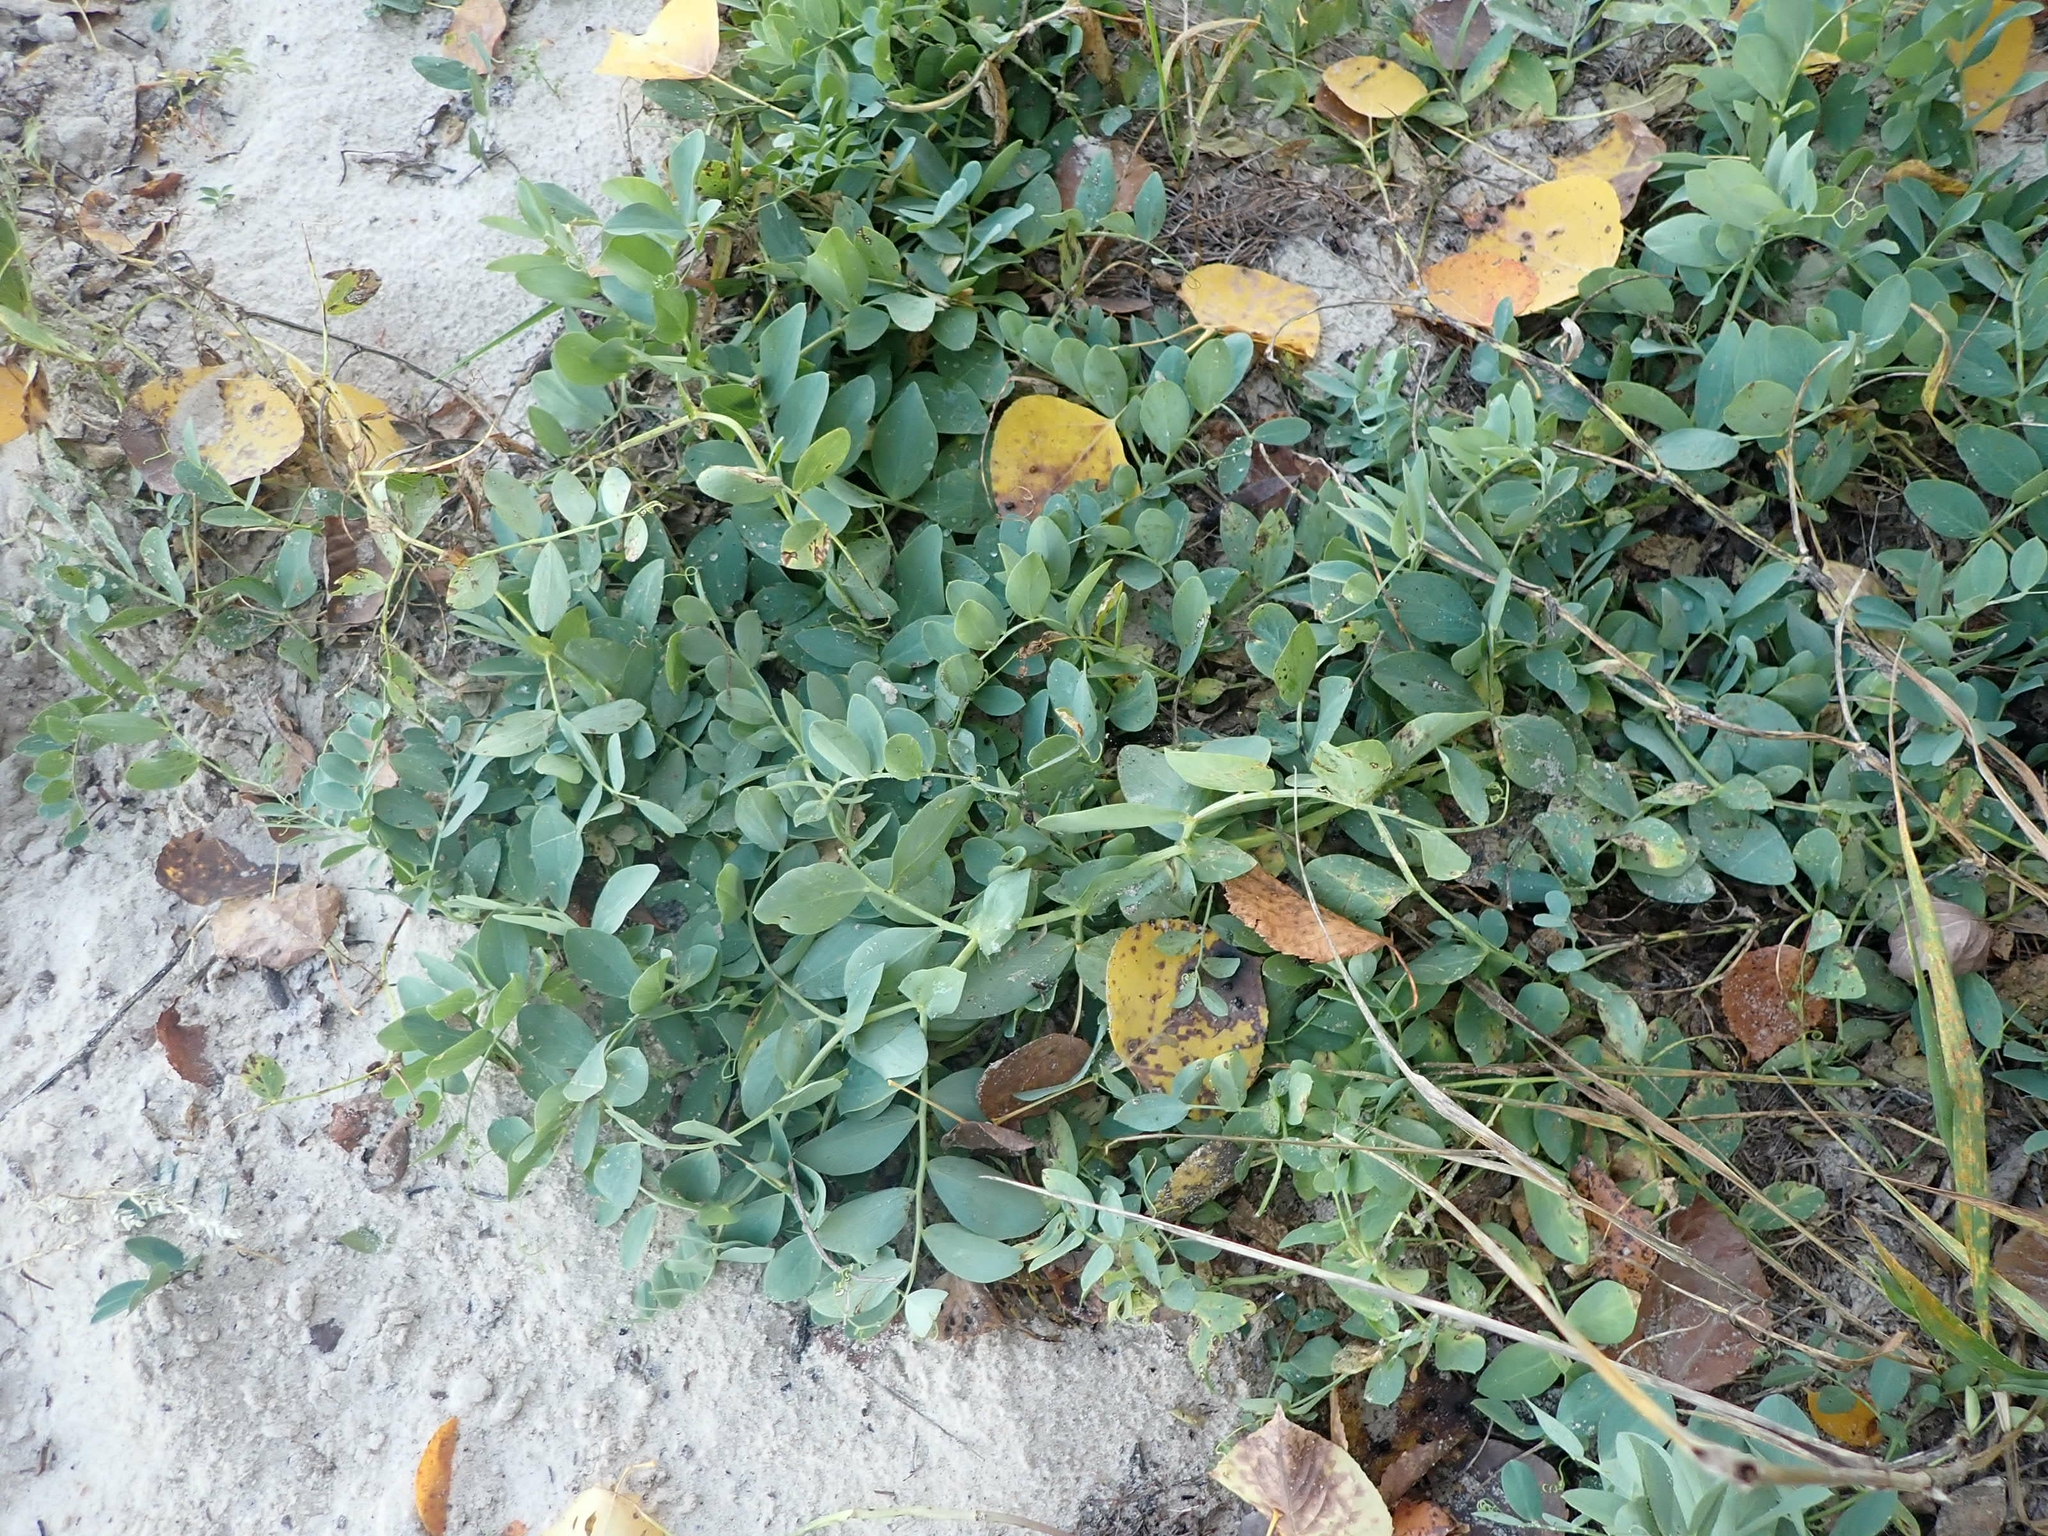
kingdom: Plantae
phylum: Tracheophyta
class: Magnoliopsida
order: Fabales
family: Fabaceae
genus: Lathyrus
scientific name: Lathyrus japonicus
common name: Sea pea
